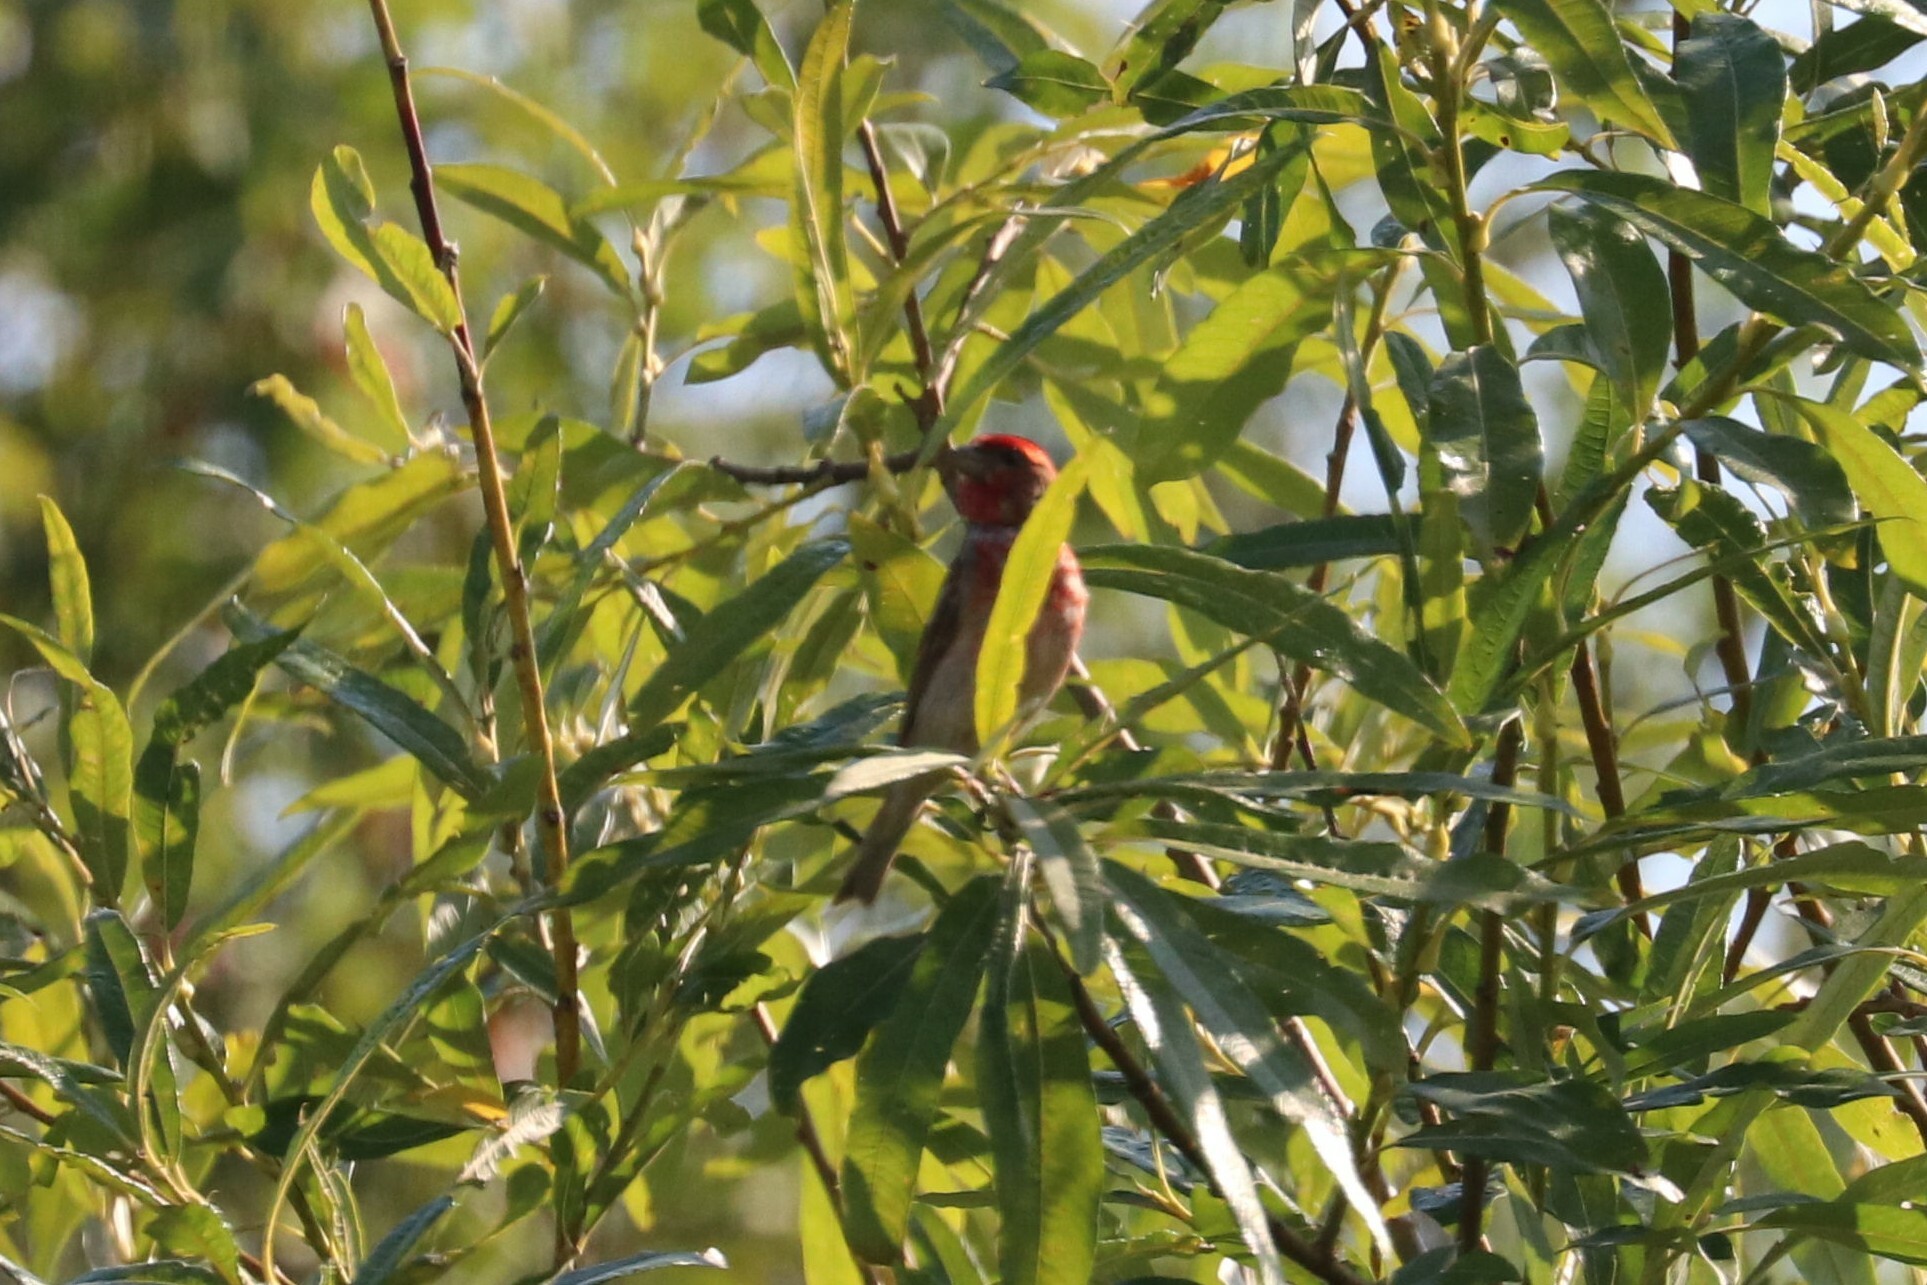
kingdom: Animalia
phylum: Chordata
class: Aves
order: Passeriformes
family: Fringillidae
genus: Carpodacus
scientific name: Carpodacus erythrinus
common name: Common rosefinch
